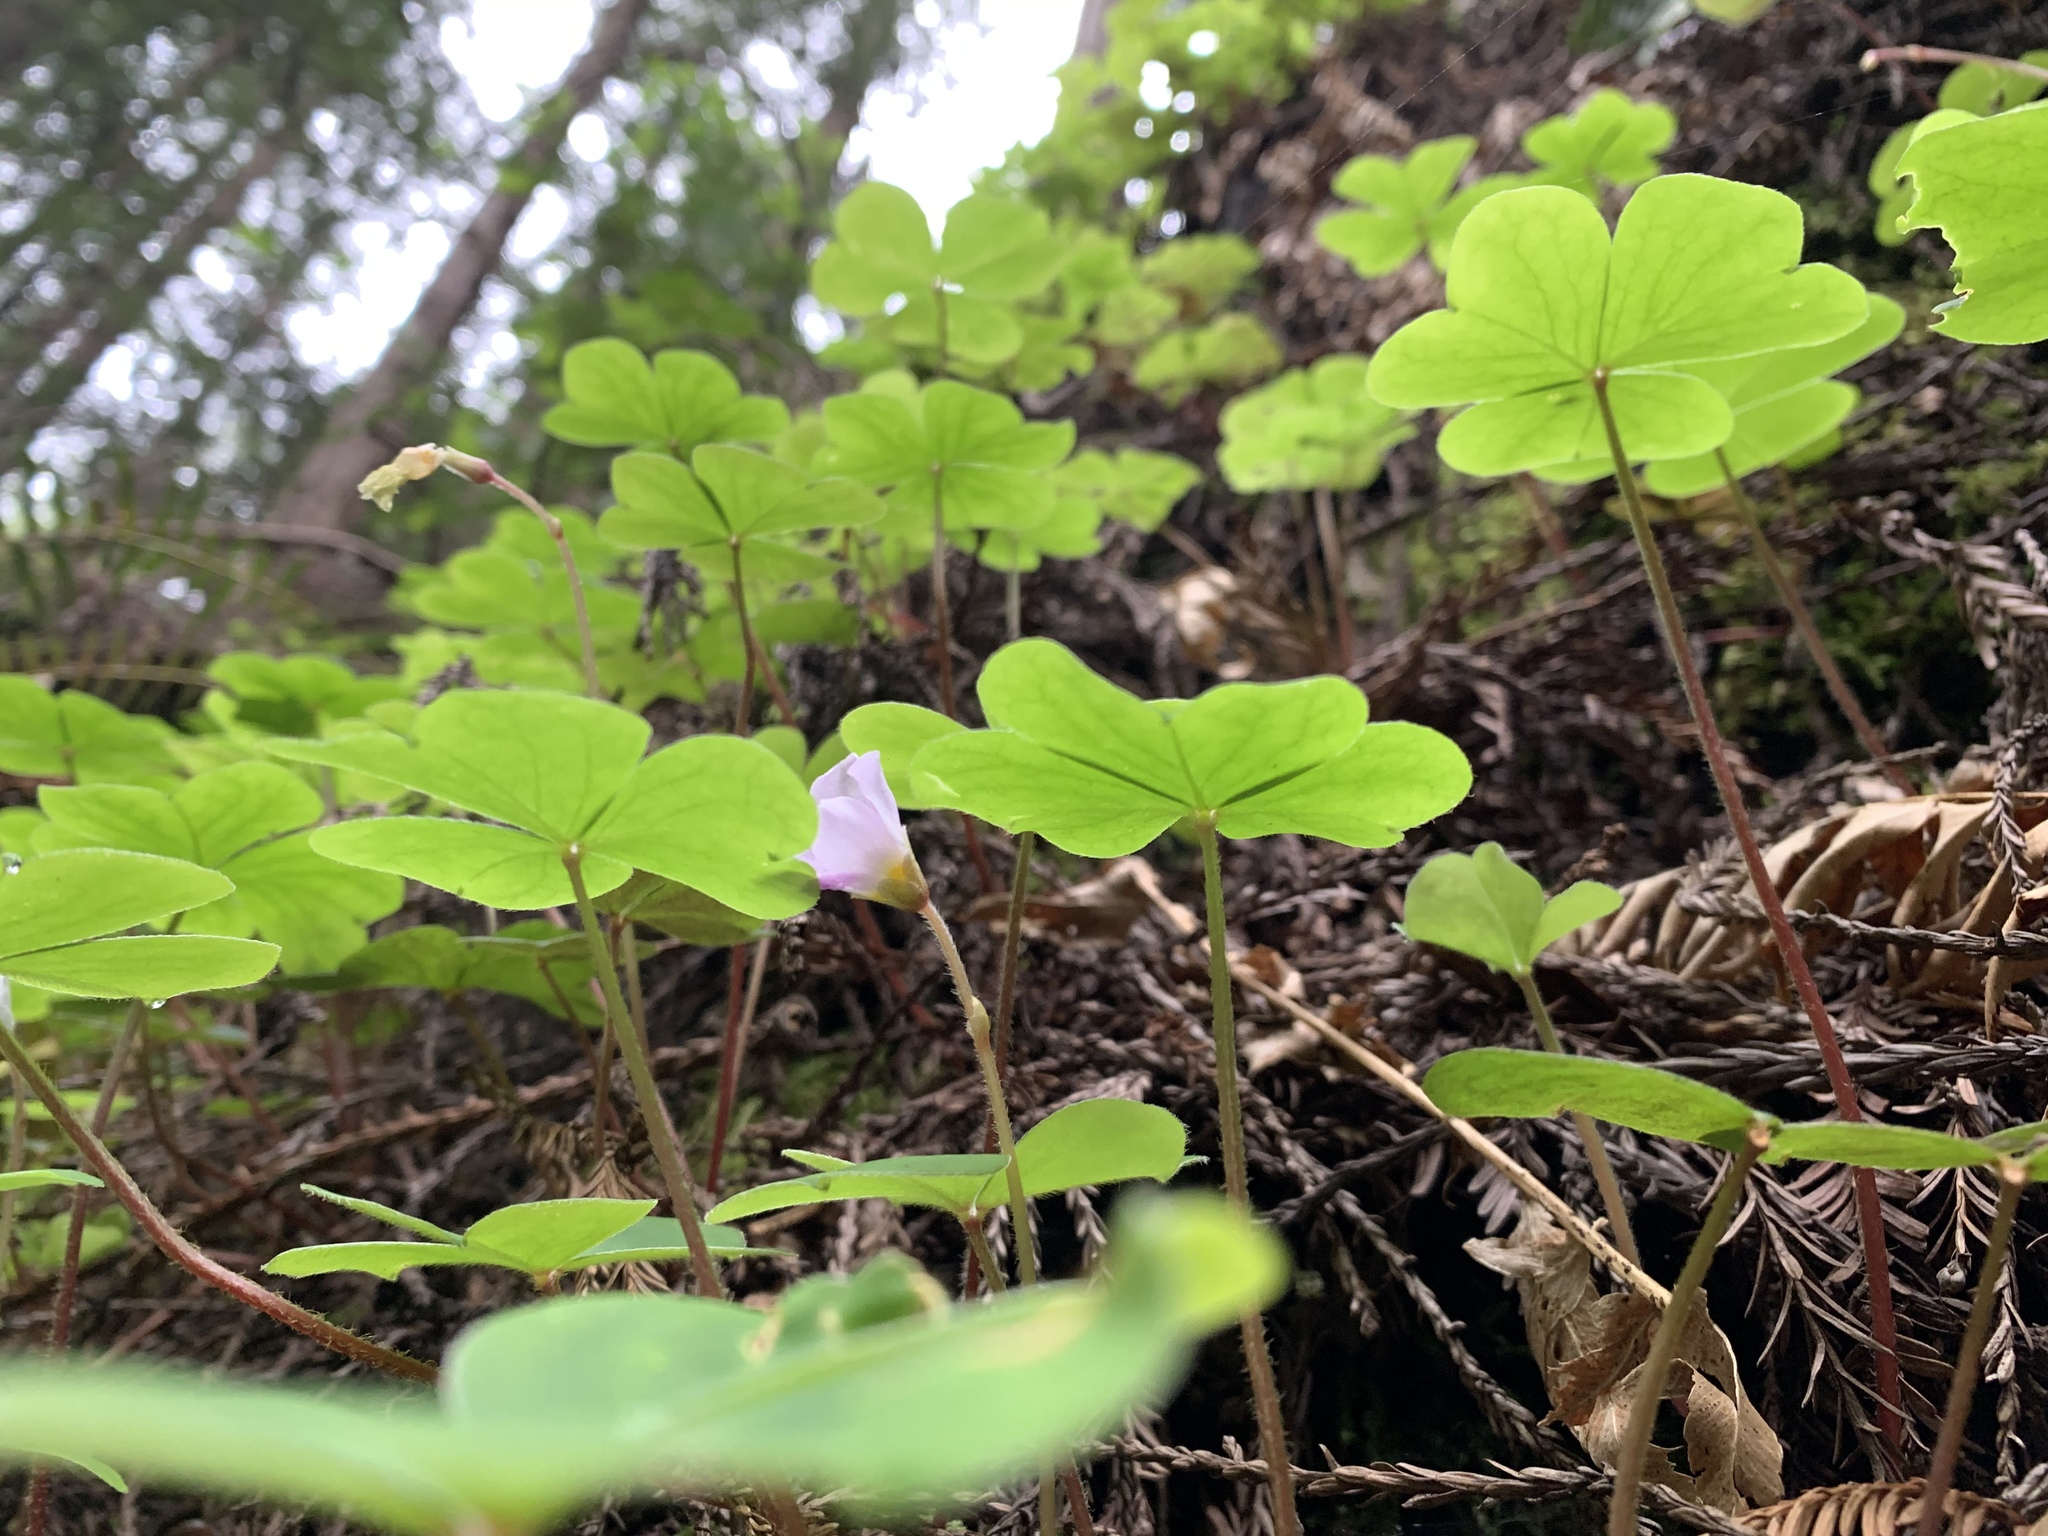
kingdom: Plantae
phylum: Tracheophyta
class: Magnoliopsida
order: Oxalidales
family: Oxalidaceae
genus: Oxalis
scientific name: Oxalis oregana
